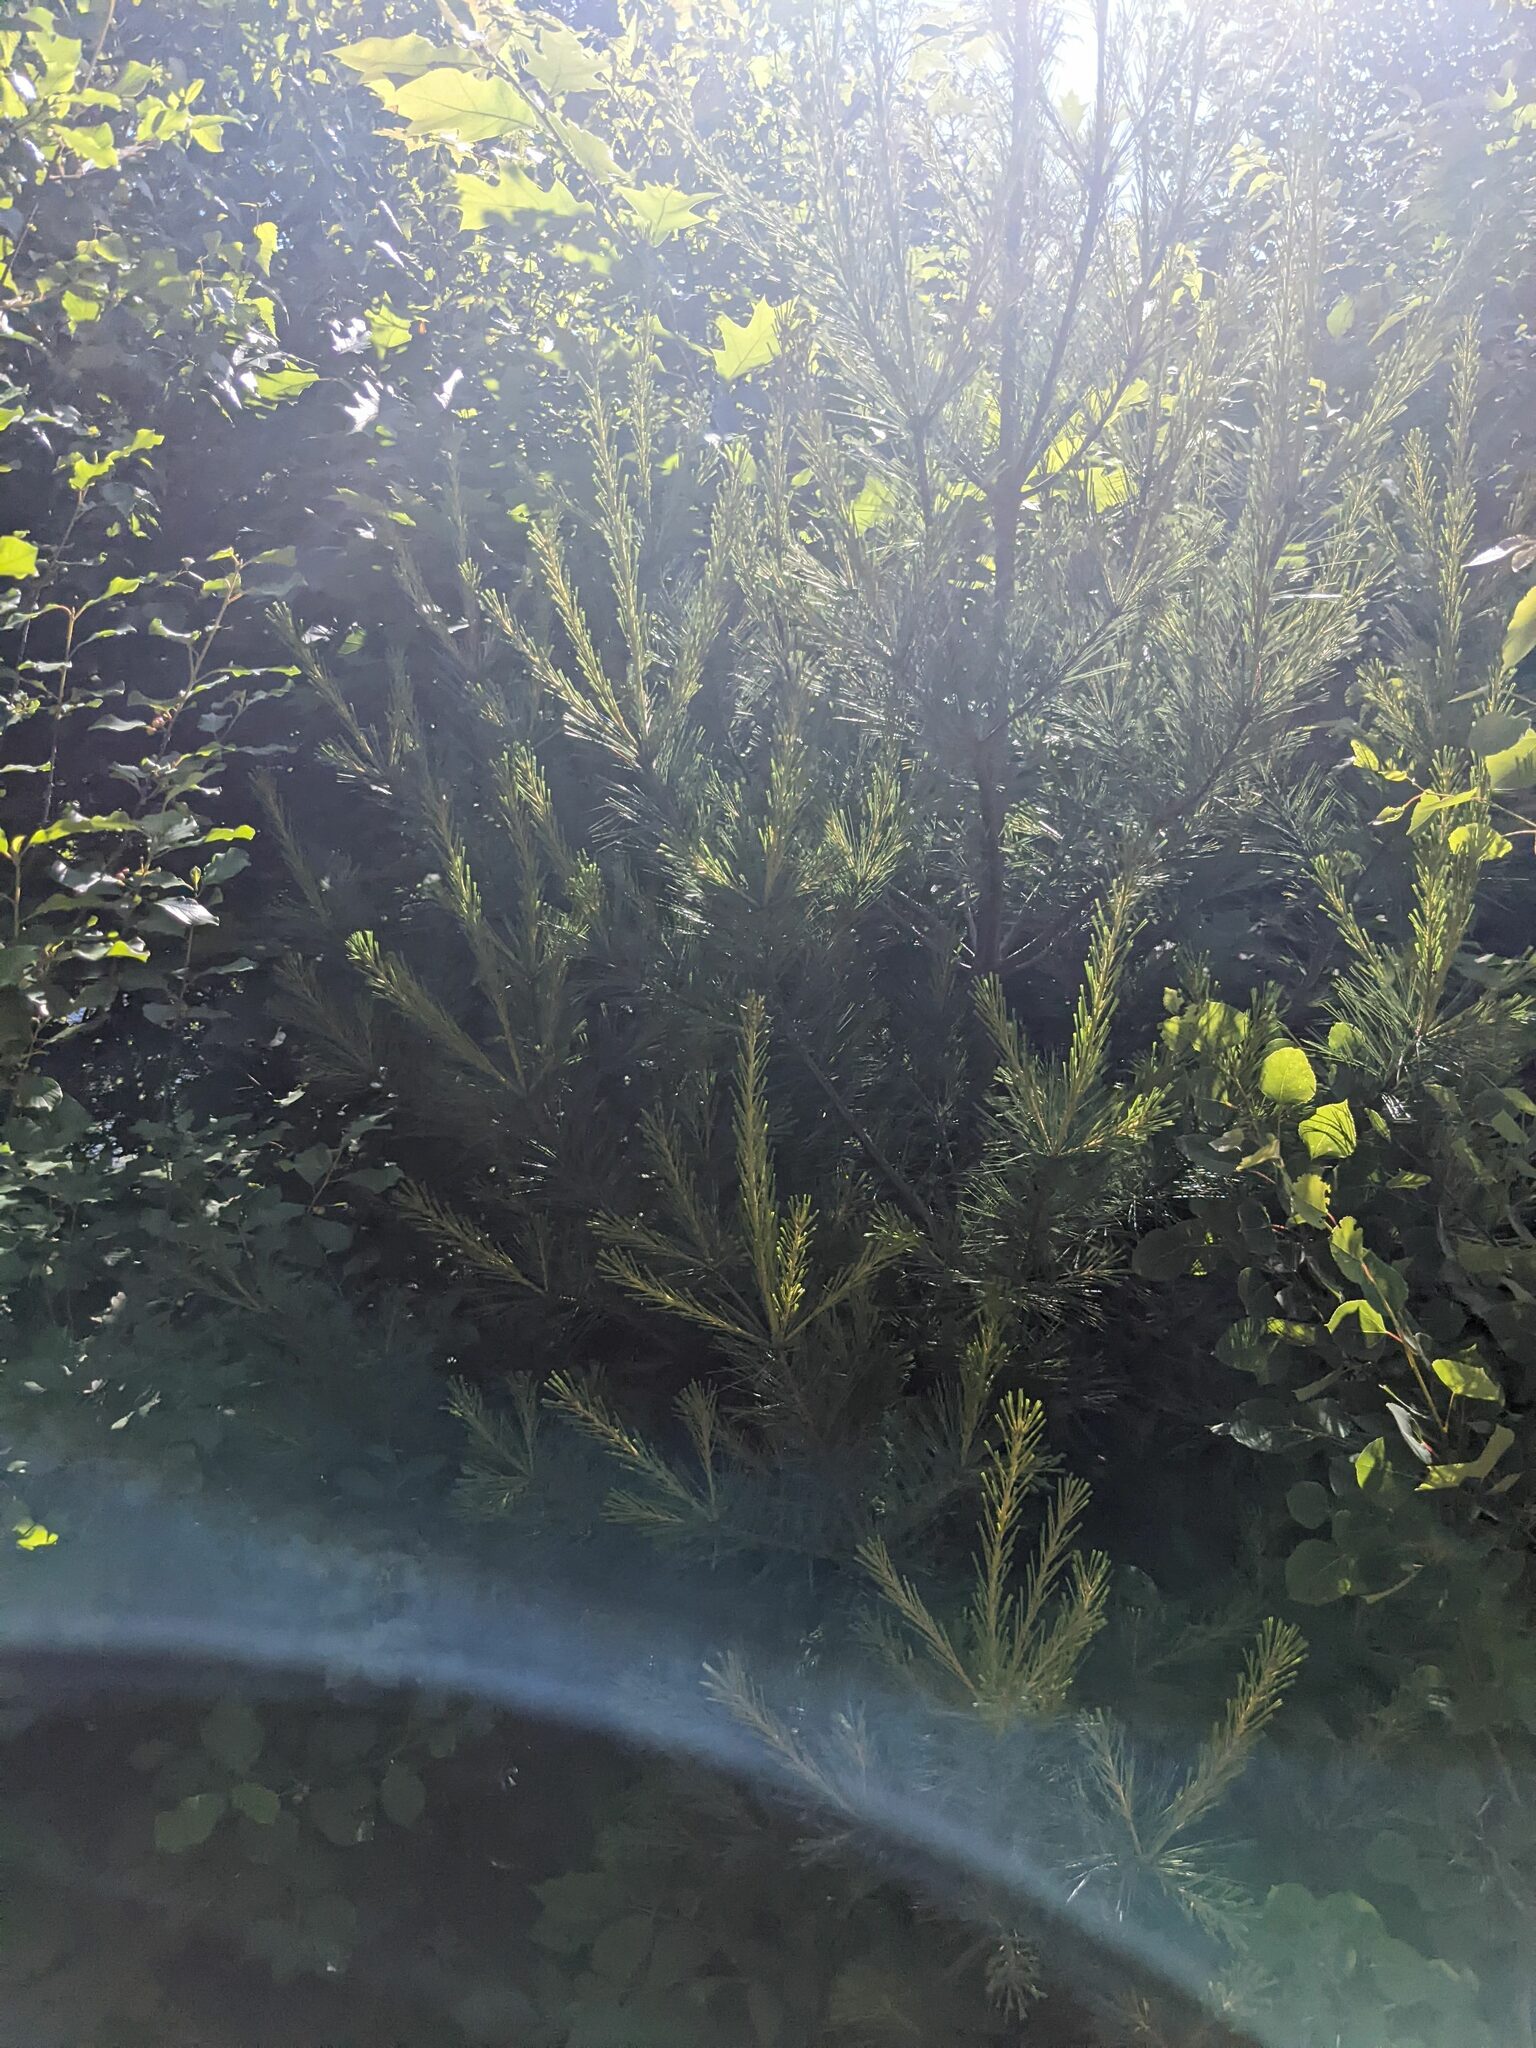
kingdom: Plantae
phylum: Tracheophyta
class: Pinopsida
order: Pinales
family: Pinaceae
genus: Pinus
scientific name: Pinus strobus
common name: Weymouth pine
